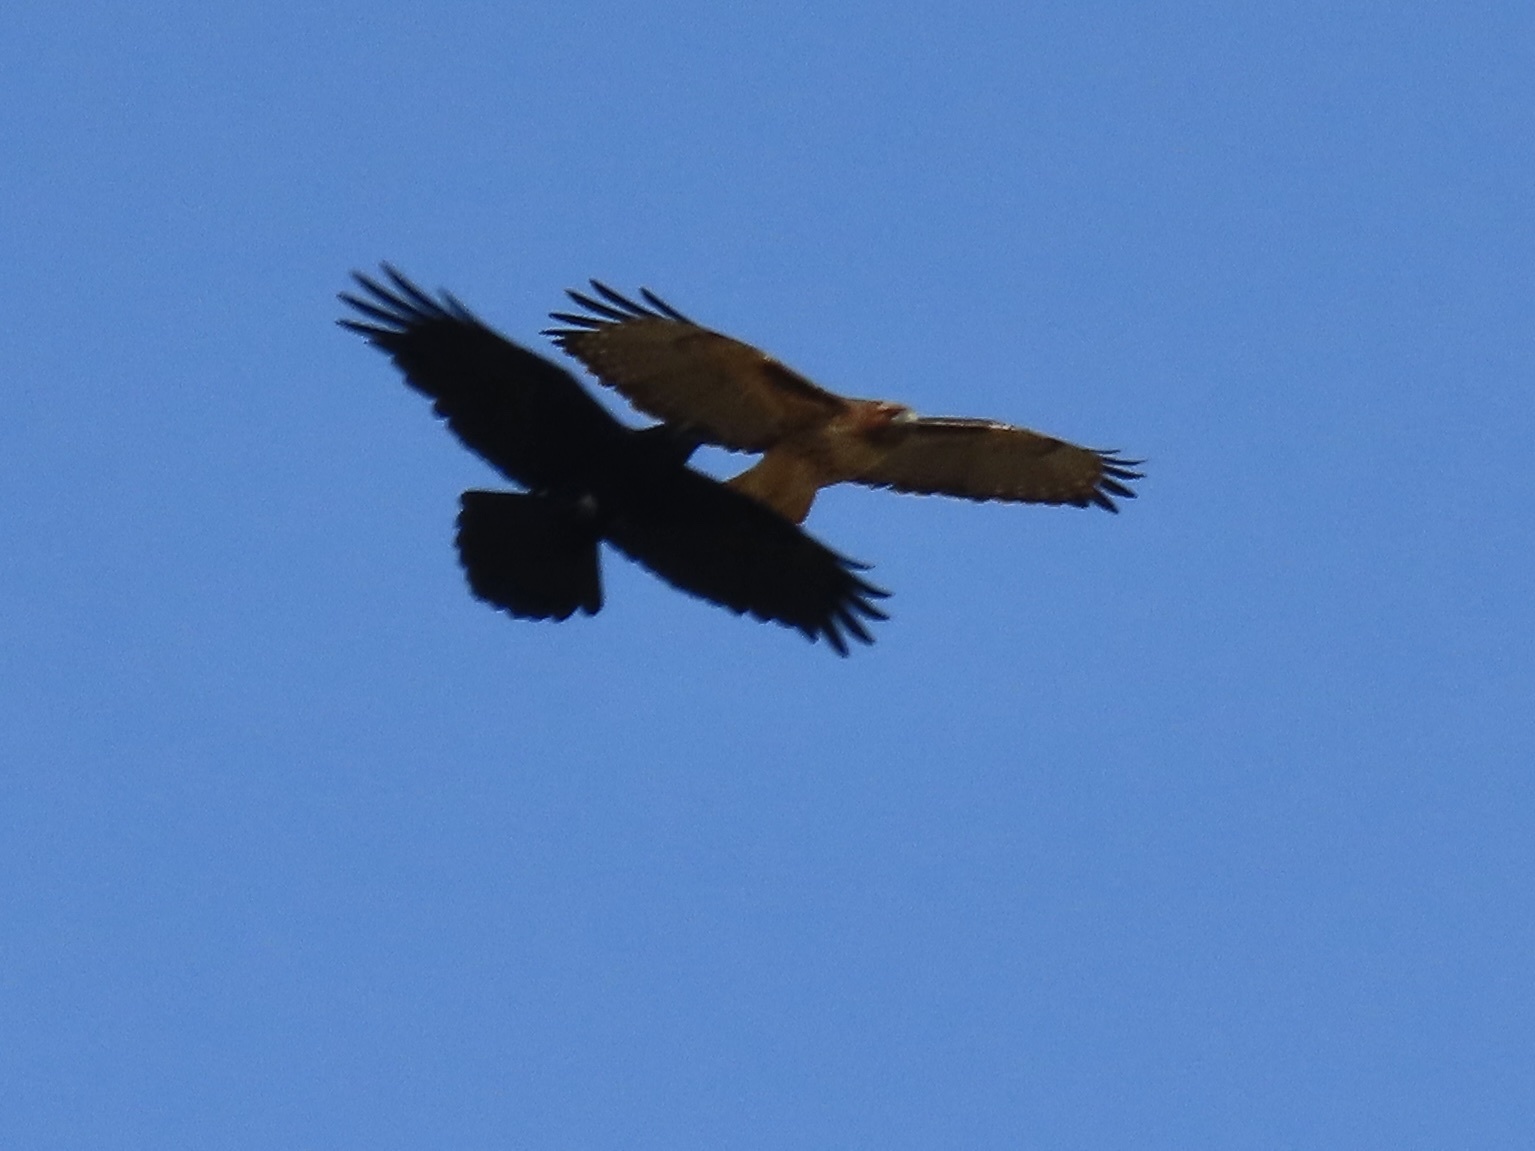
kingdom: Animalia
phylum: Chordata
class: Aves
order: Accipitriformes
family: Accipitridae
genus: Buteo
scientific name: Buteo jamaicensis
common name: Red-tailed hawk
